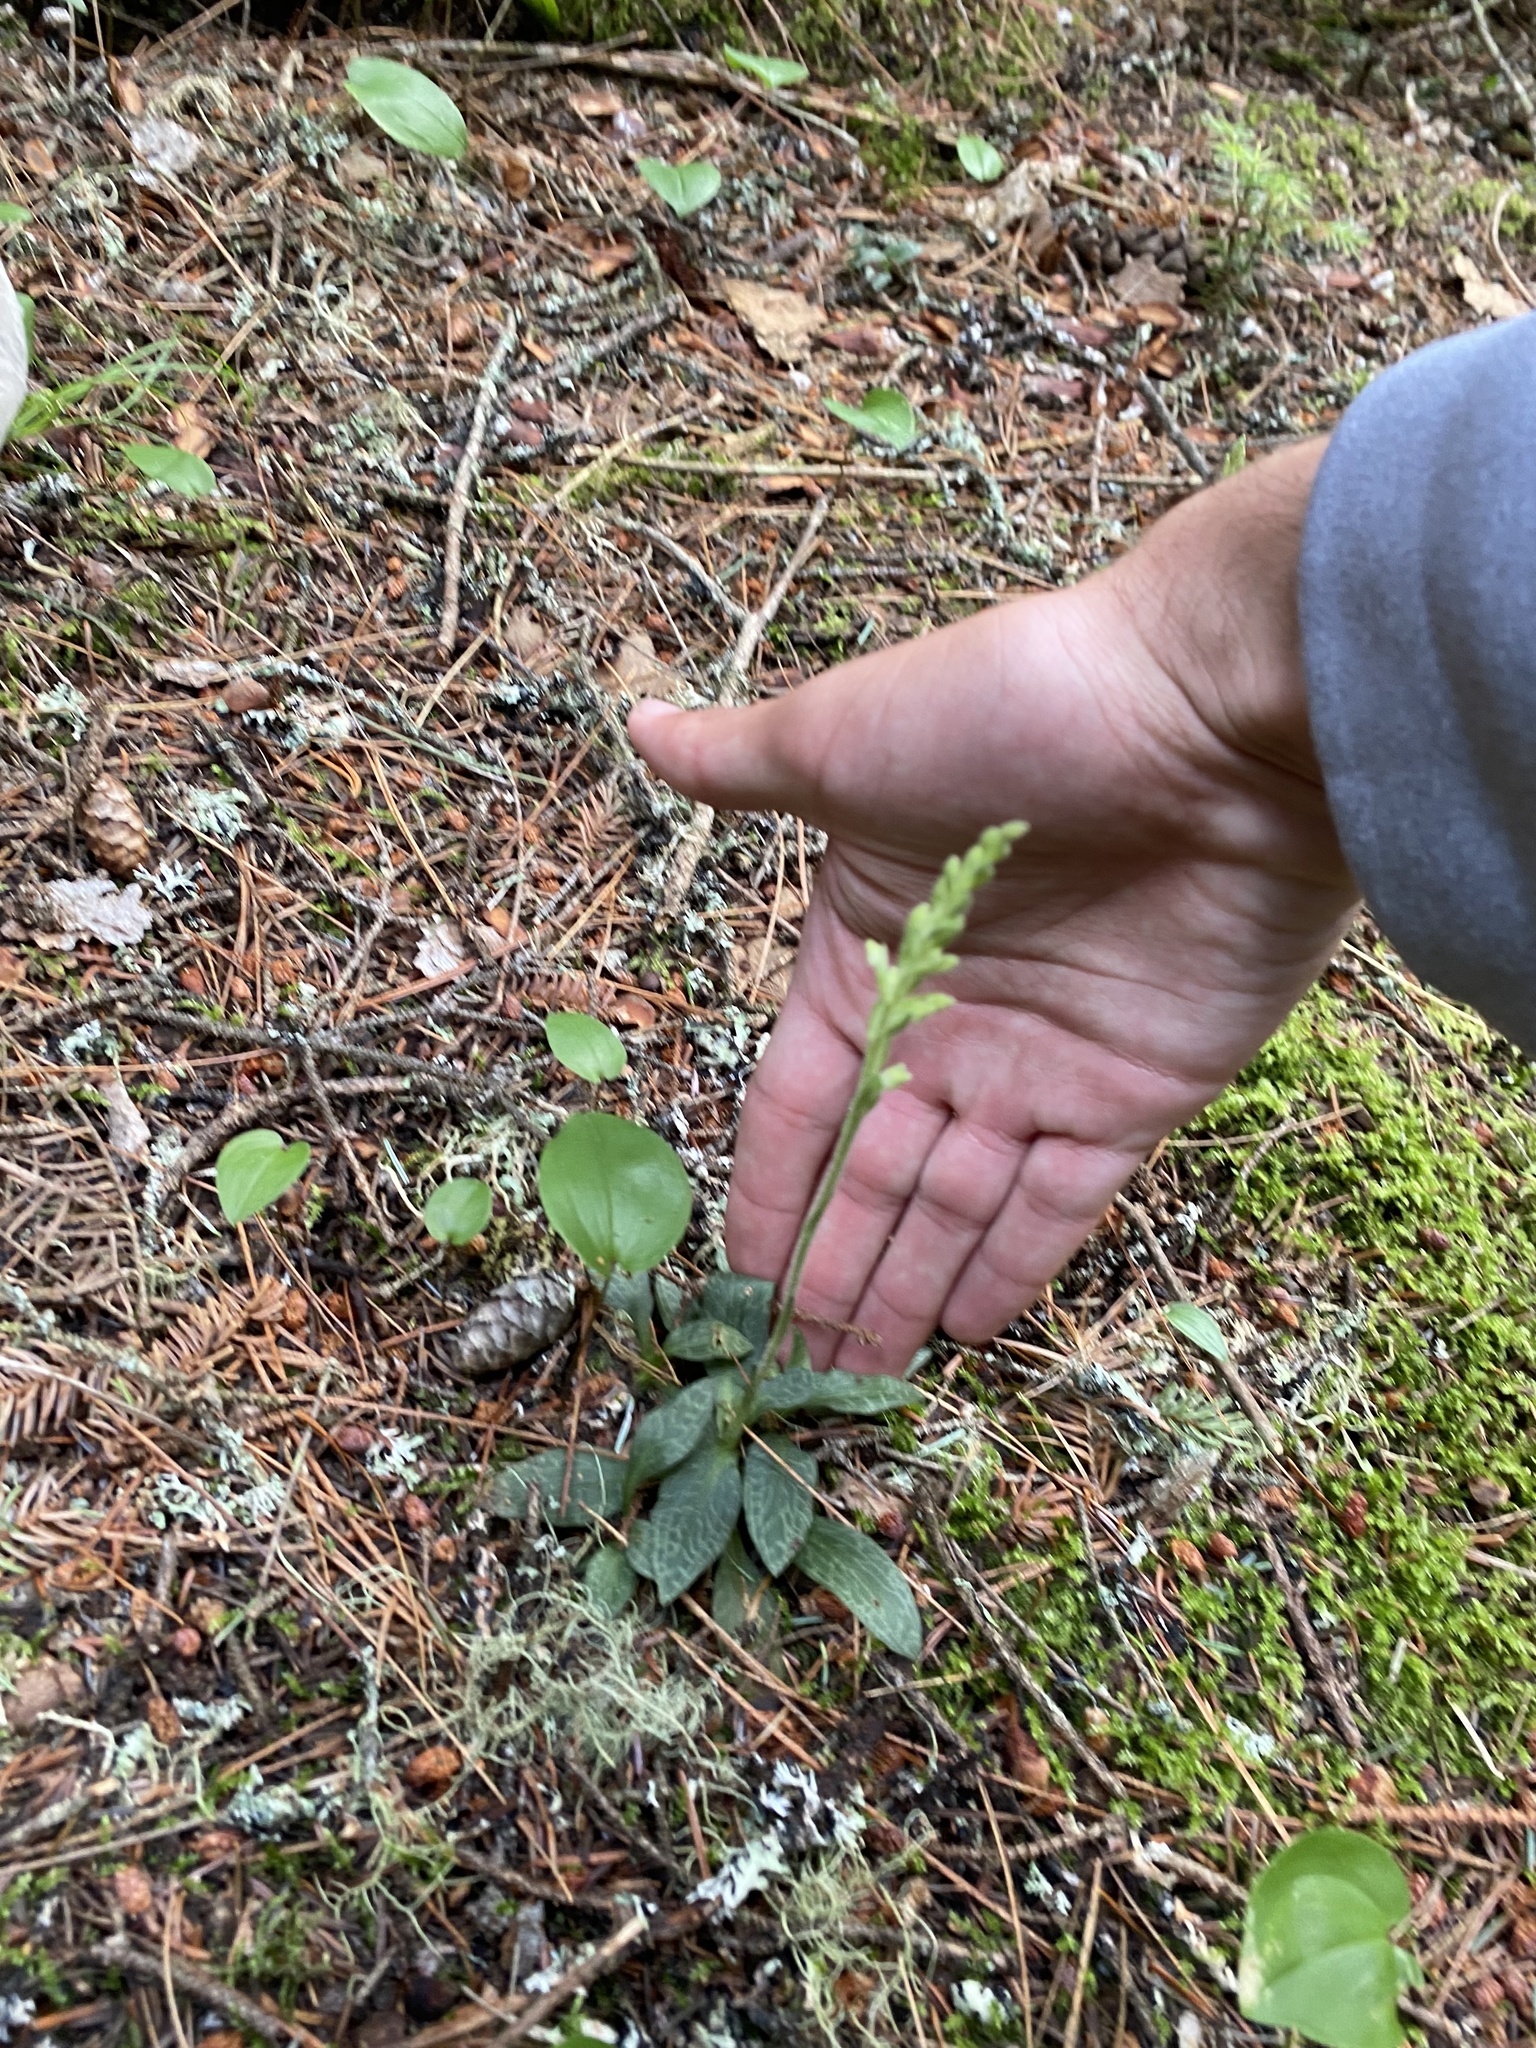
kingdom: Plantae
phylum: Tracheophyta
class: Liliopsida
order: Asparagales
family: Orchidaceae
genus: Goodyera
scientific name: Goodyera tesselata
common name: Checkered rattlesnake-plantain
